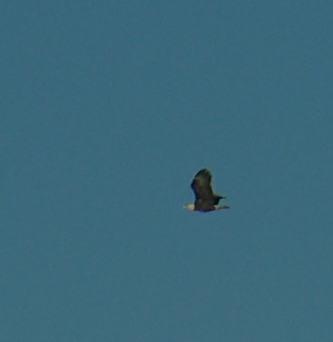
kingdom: Animalia
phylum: Chordata
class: Aves
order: Accipitriformes
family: Accipitridae
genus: Haliaeetus
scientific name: Haliaeetus leucocephalus
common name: Bald eagle
